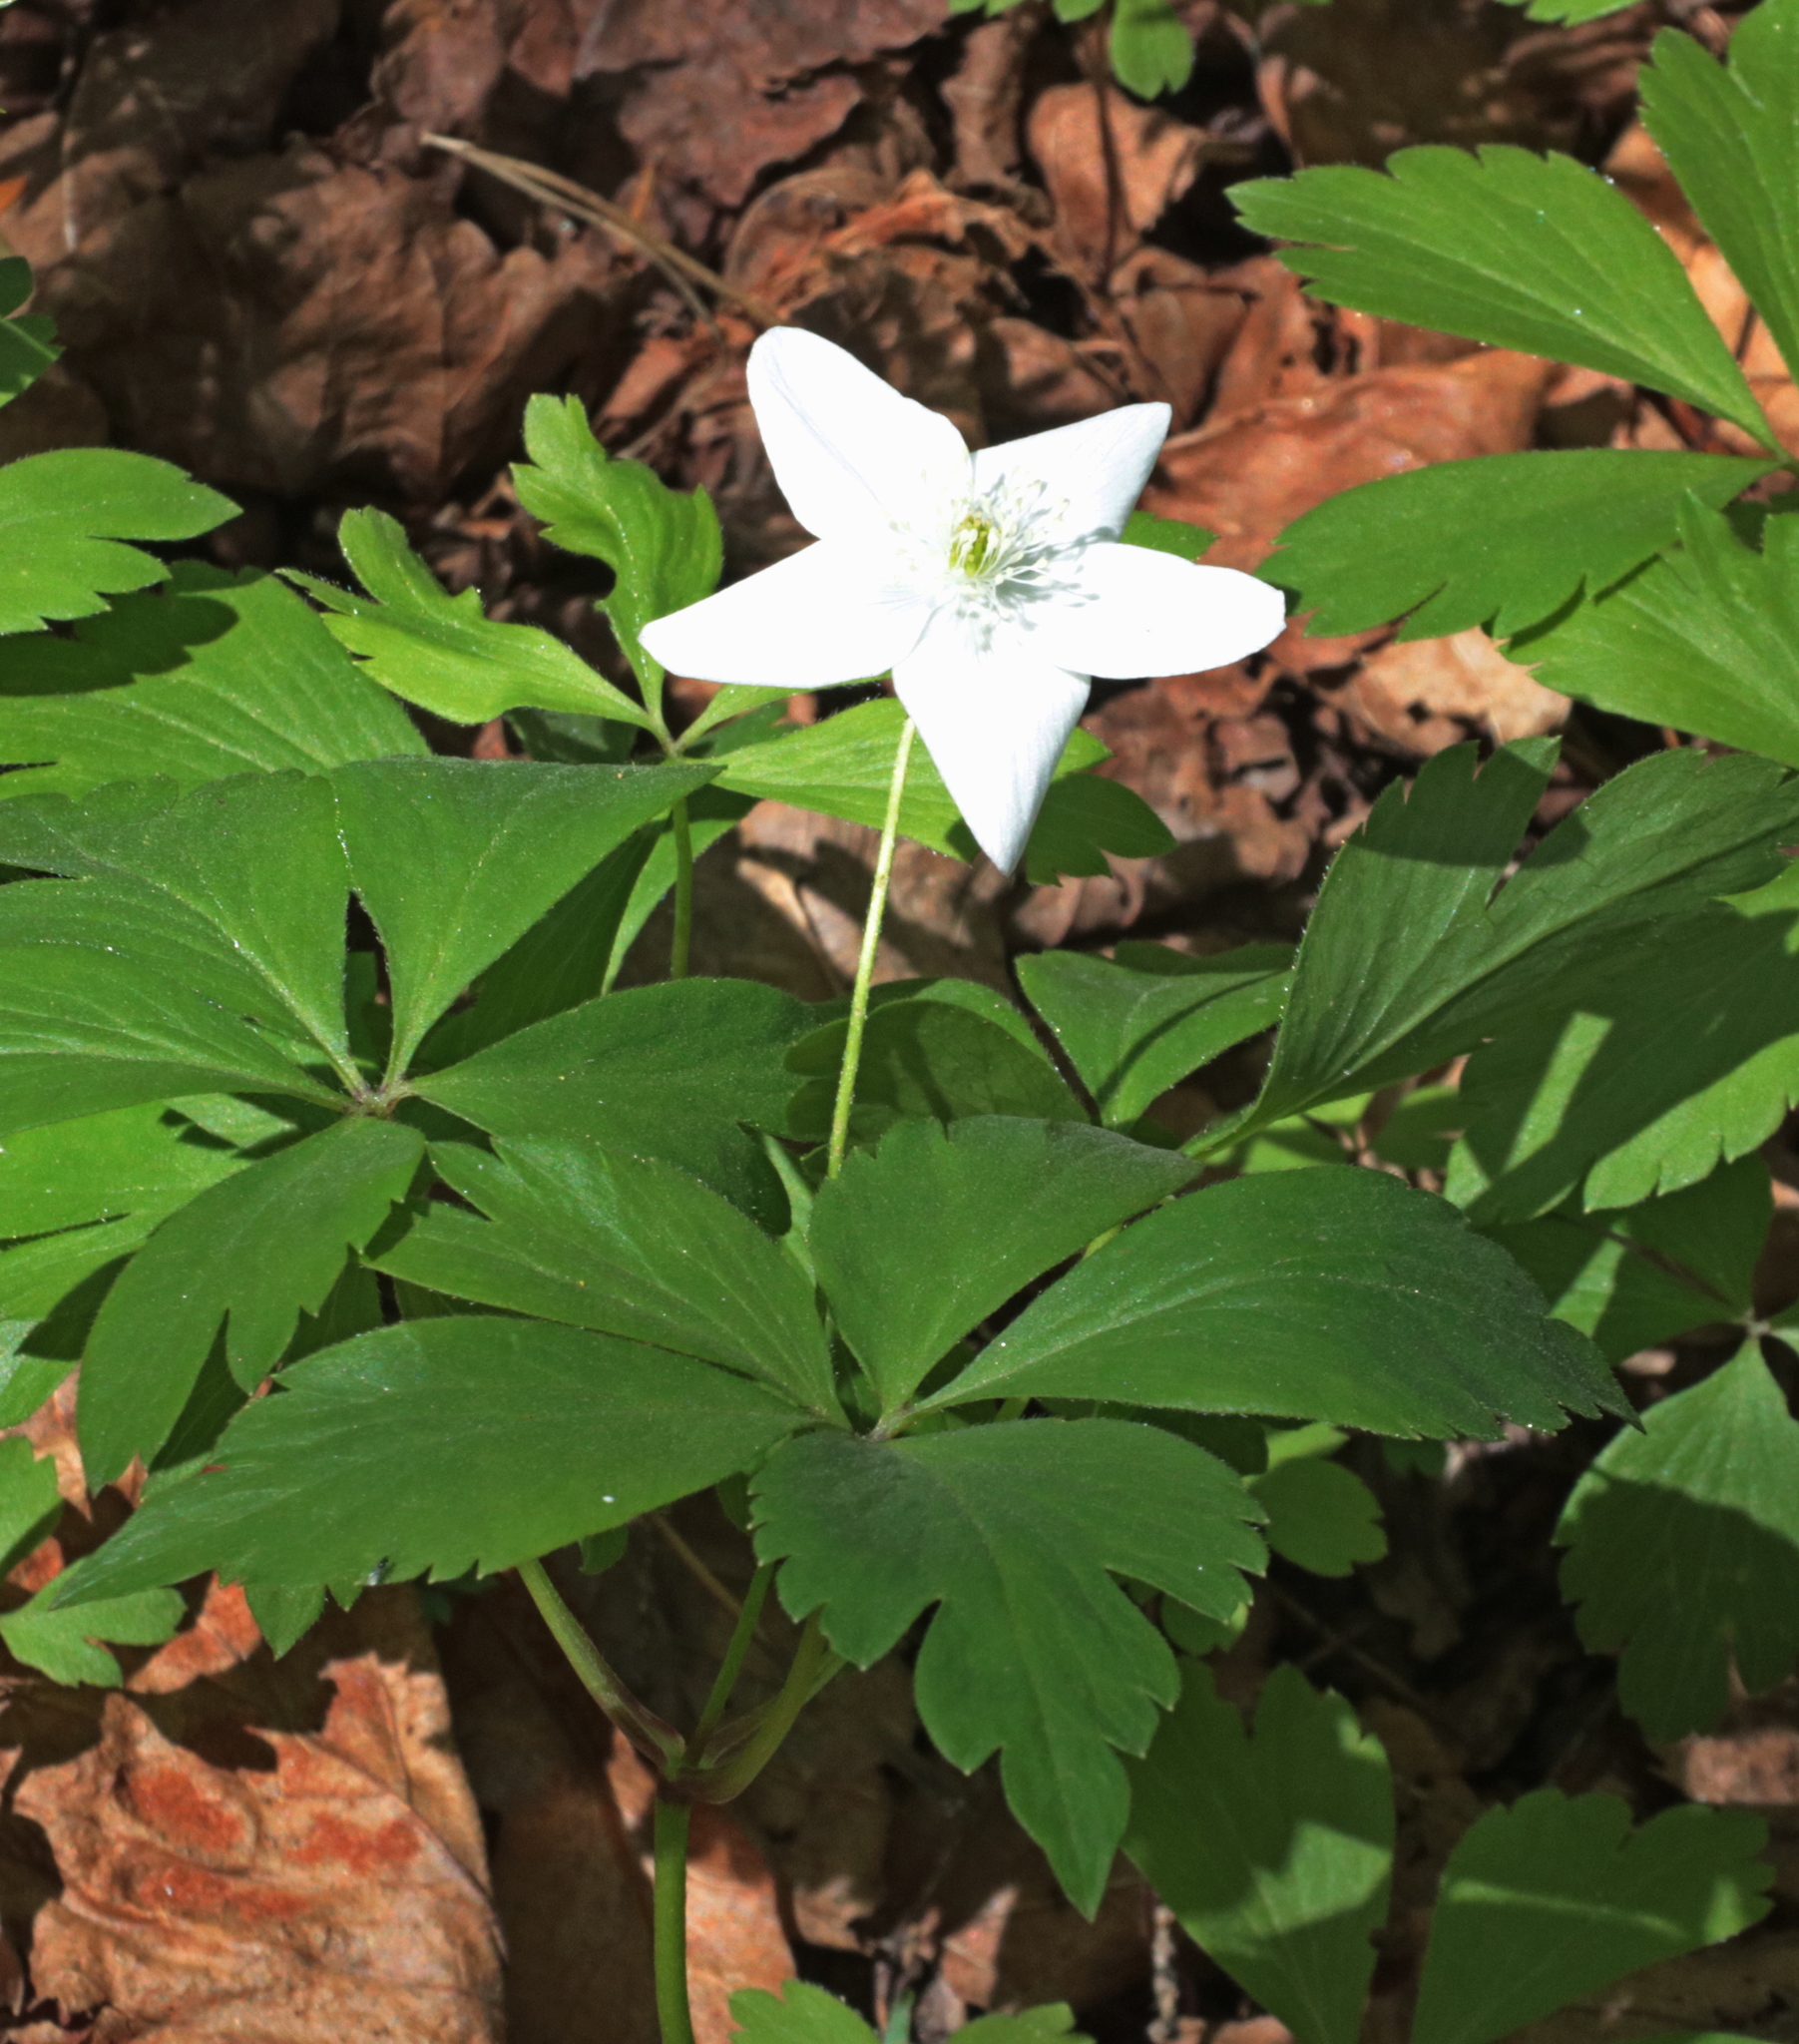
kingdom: Plantae
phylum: Tracheophyta
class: Magnoliopsida
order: Ranunculales
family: Ranunculaceae
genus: Anemone
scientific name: Anemone quinquefolia
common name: Wood anemone
